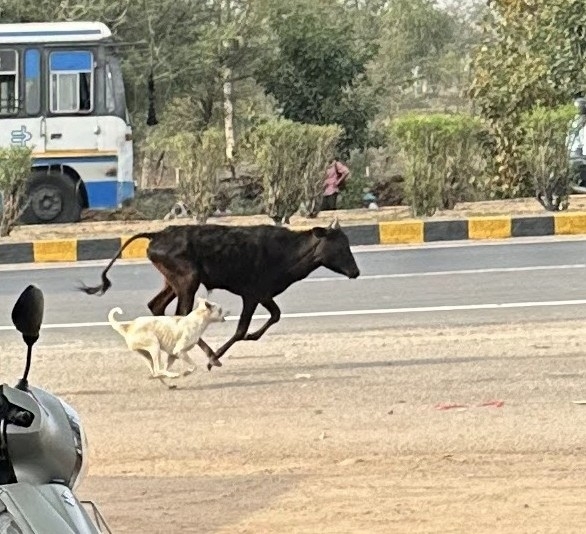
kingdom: Animalia
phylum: Chordata
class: Mammalia
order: Artiodactyla
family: Bovidae
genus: Bos
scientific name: Bos taurus
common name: Domesticated cattle
